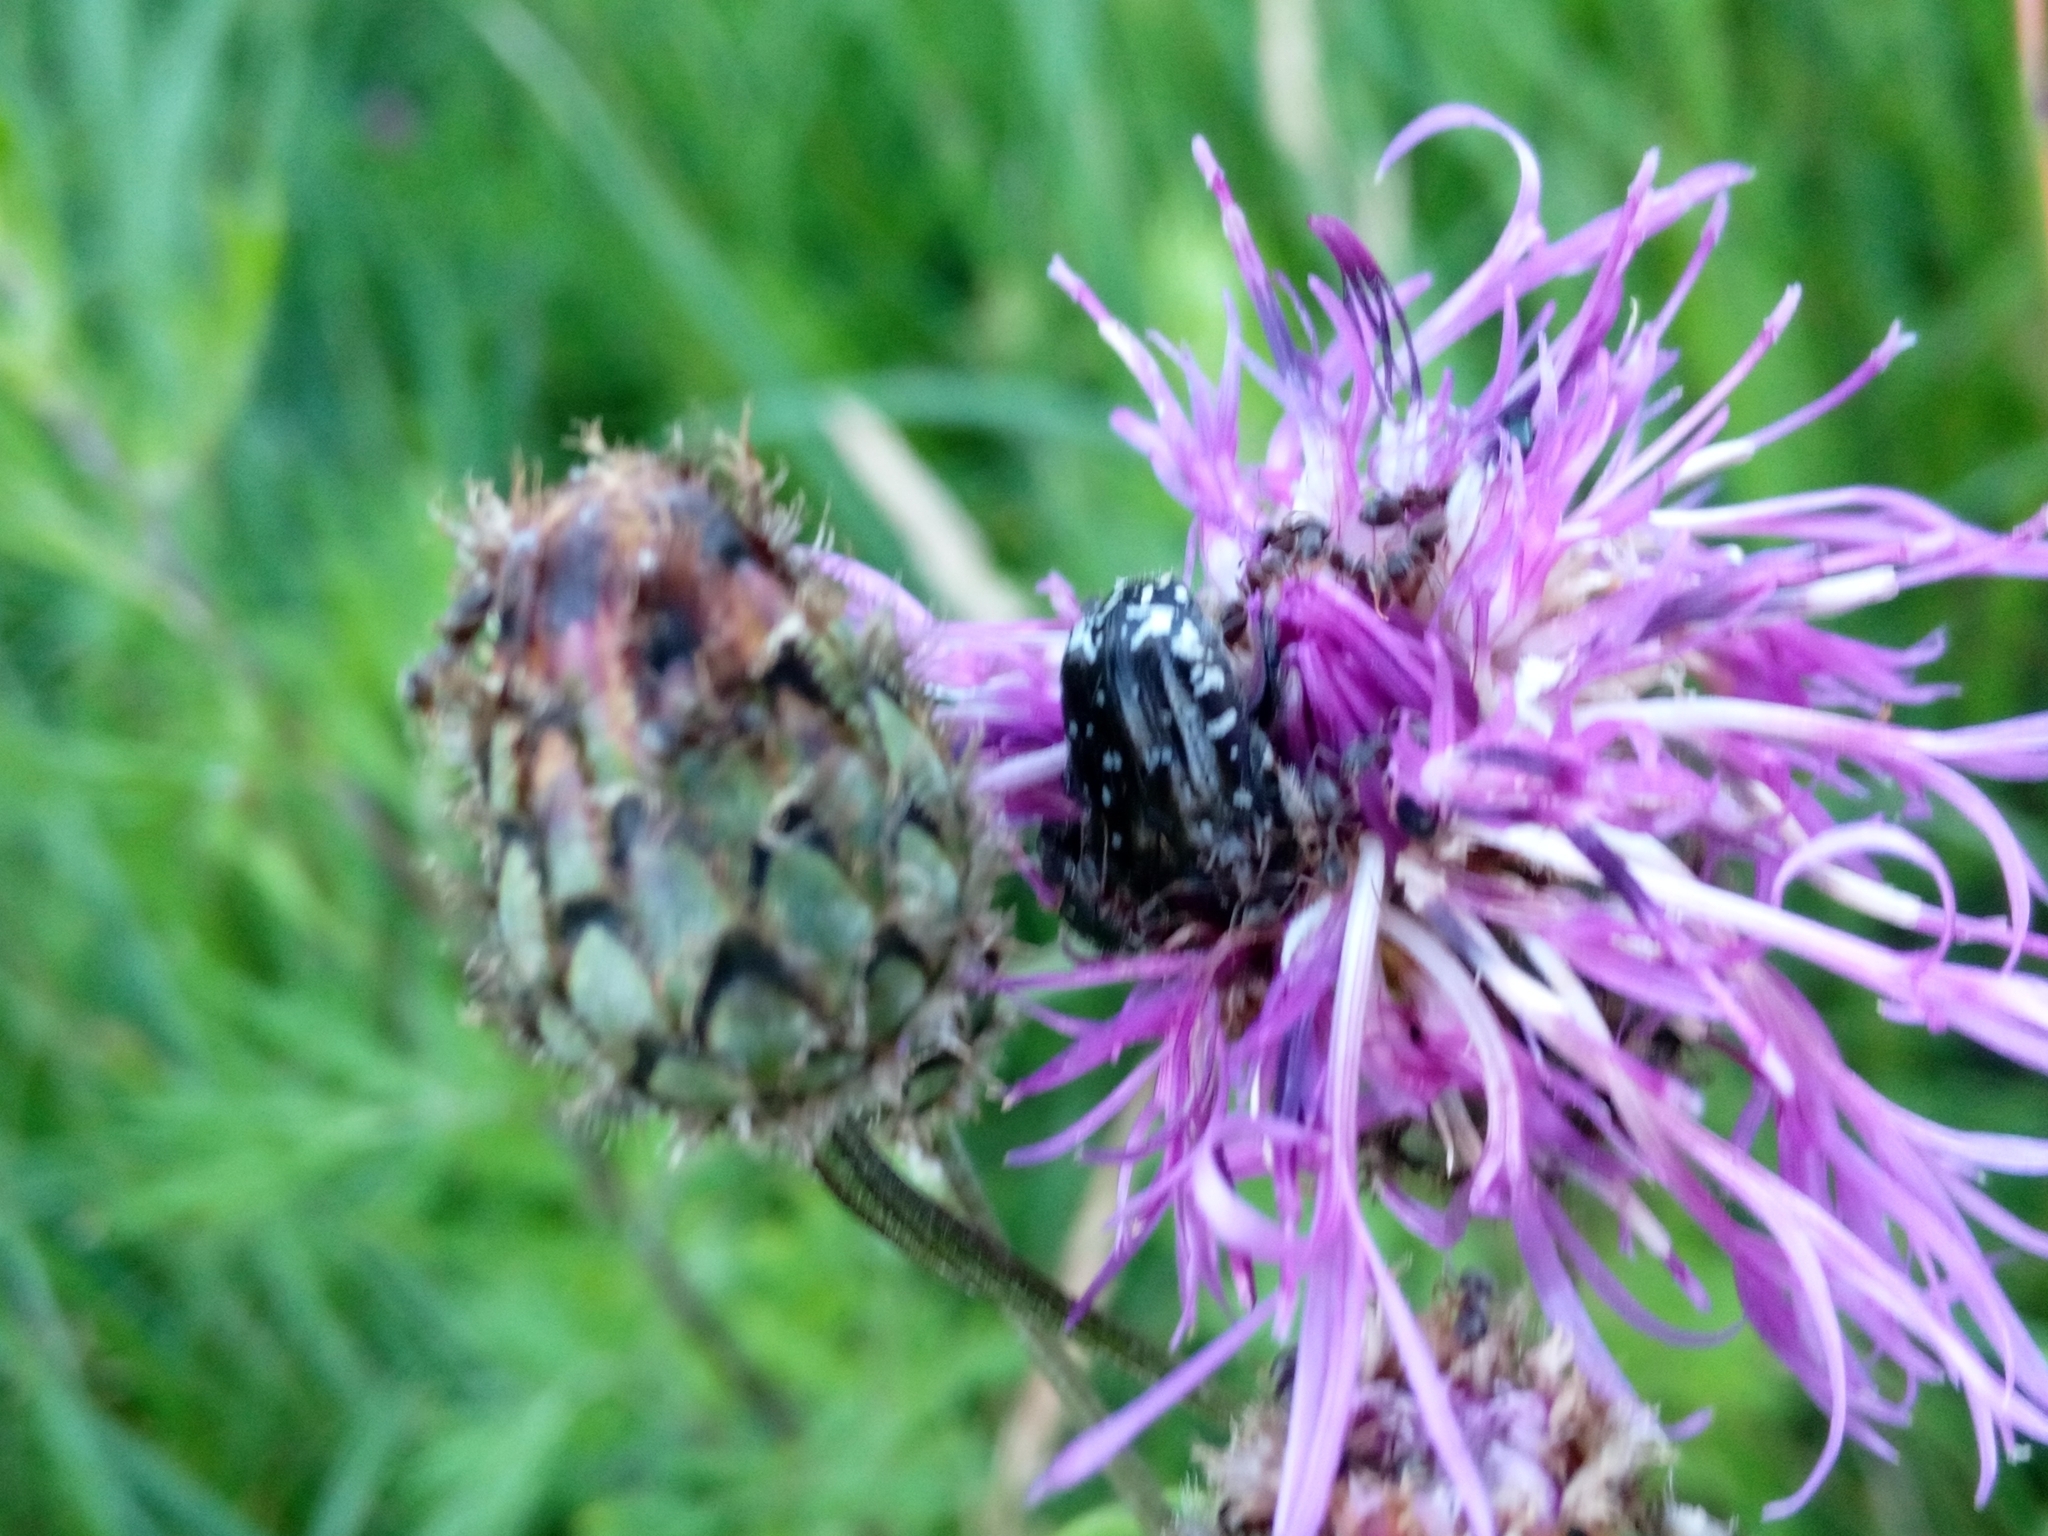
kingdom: Animalia
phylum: Arthropoda
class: Insecta
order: Coleoptera
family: Scarabaeidae
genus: Oxythyrea
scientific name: Oxythyrea funesta
